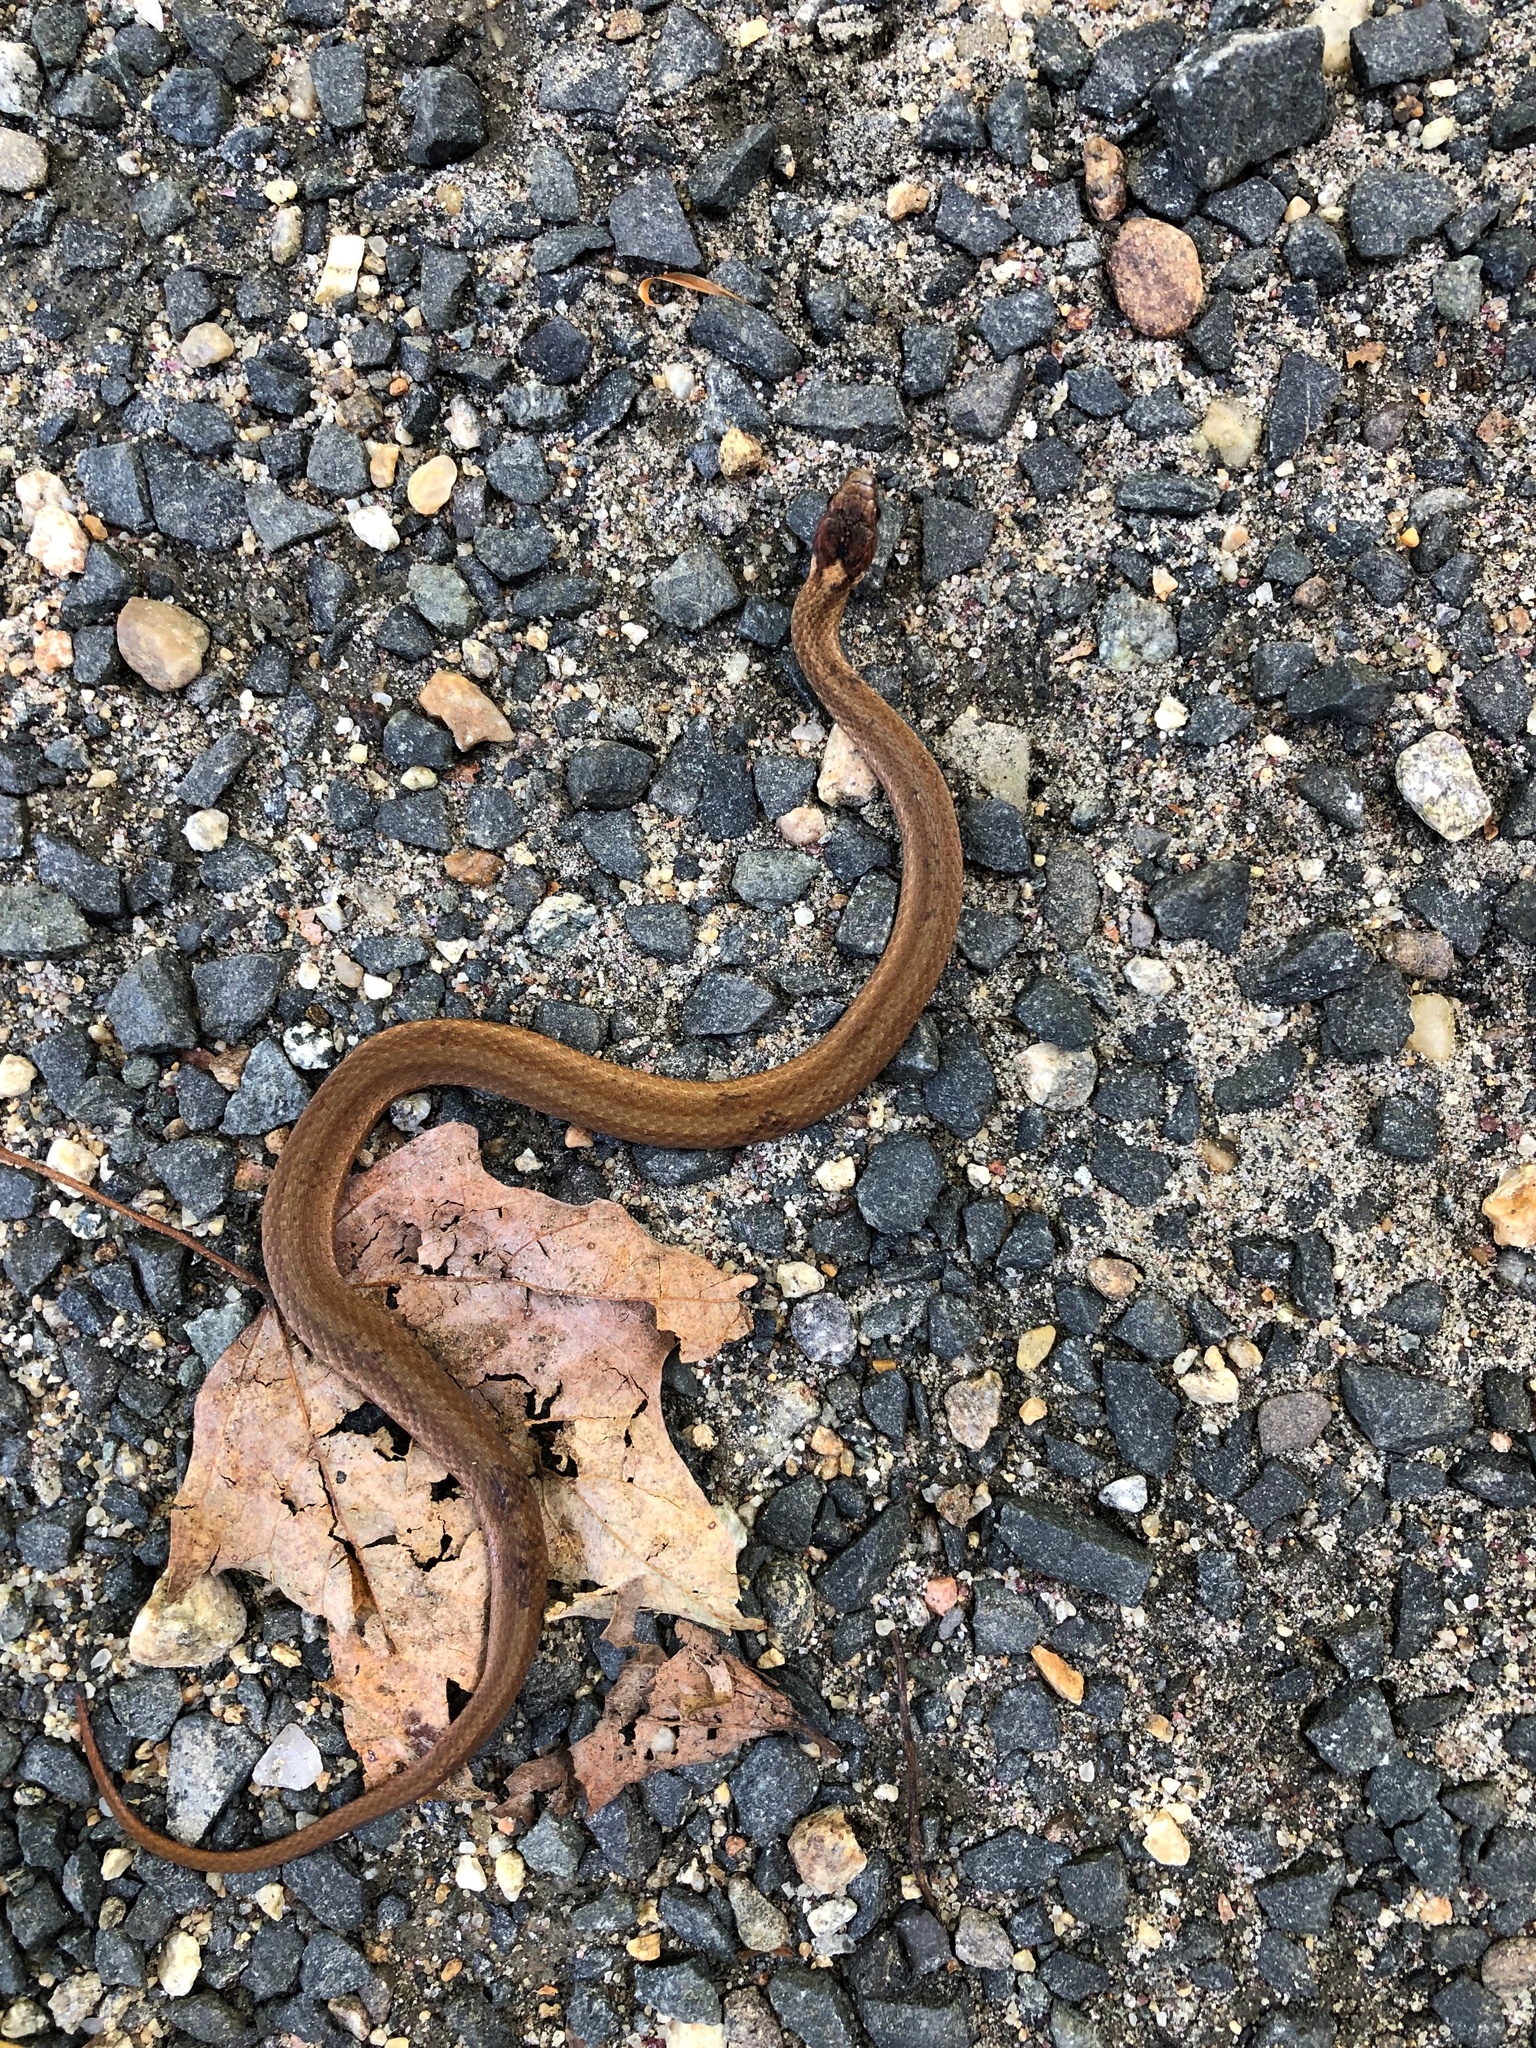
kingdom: Animalia
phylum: Chordata
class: Squamata
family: Colubridae
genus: Storeria
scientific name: Storeria occipitomaculata
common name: Redbelly snake
